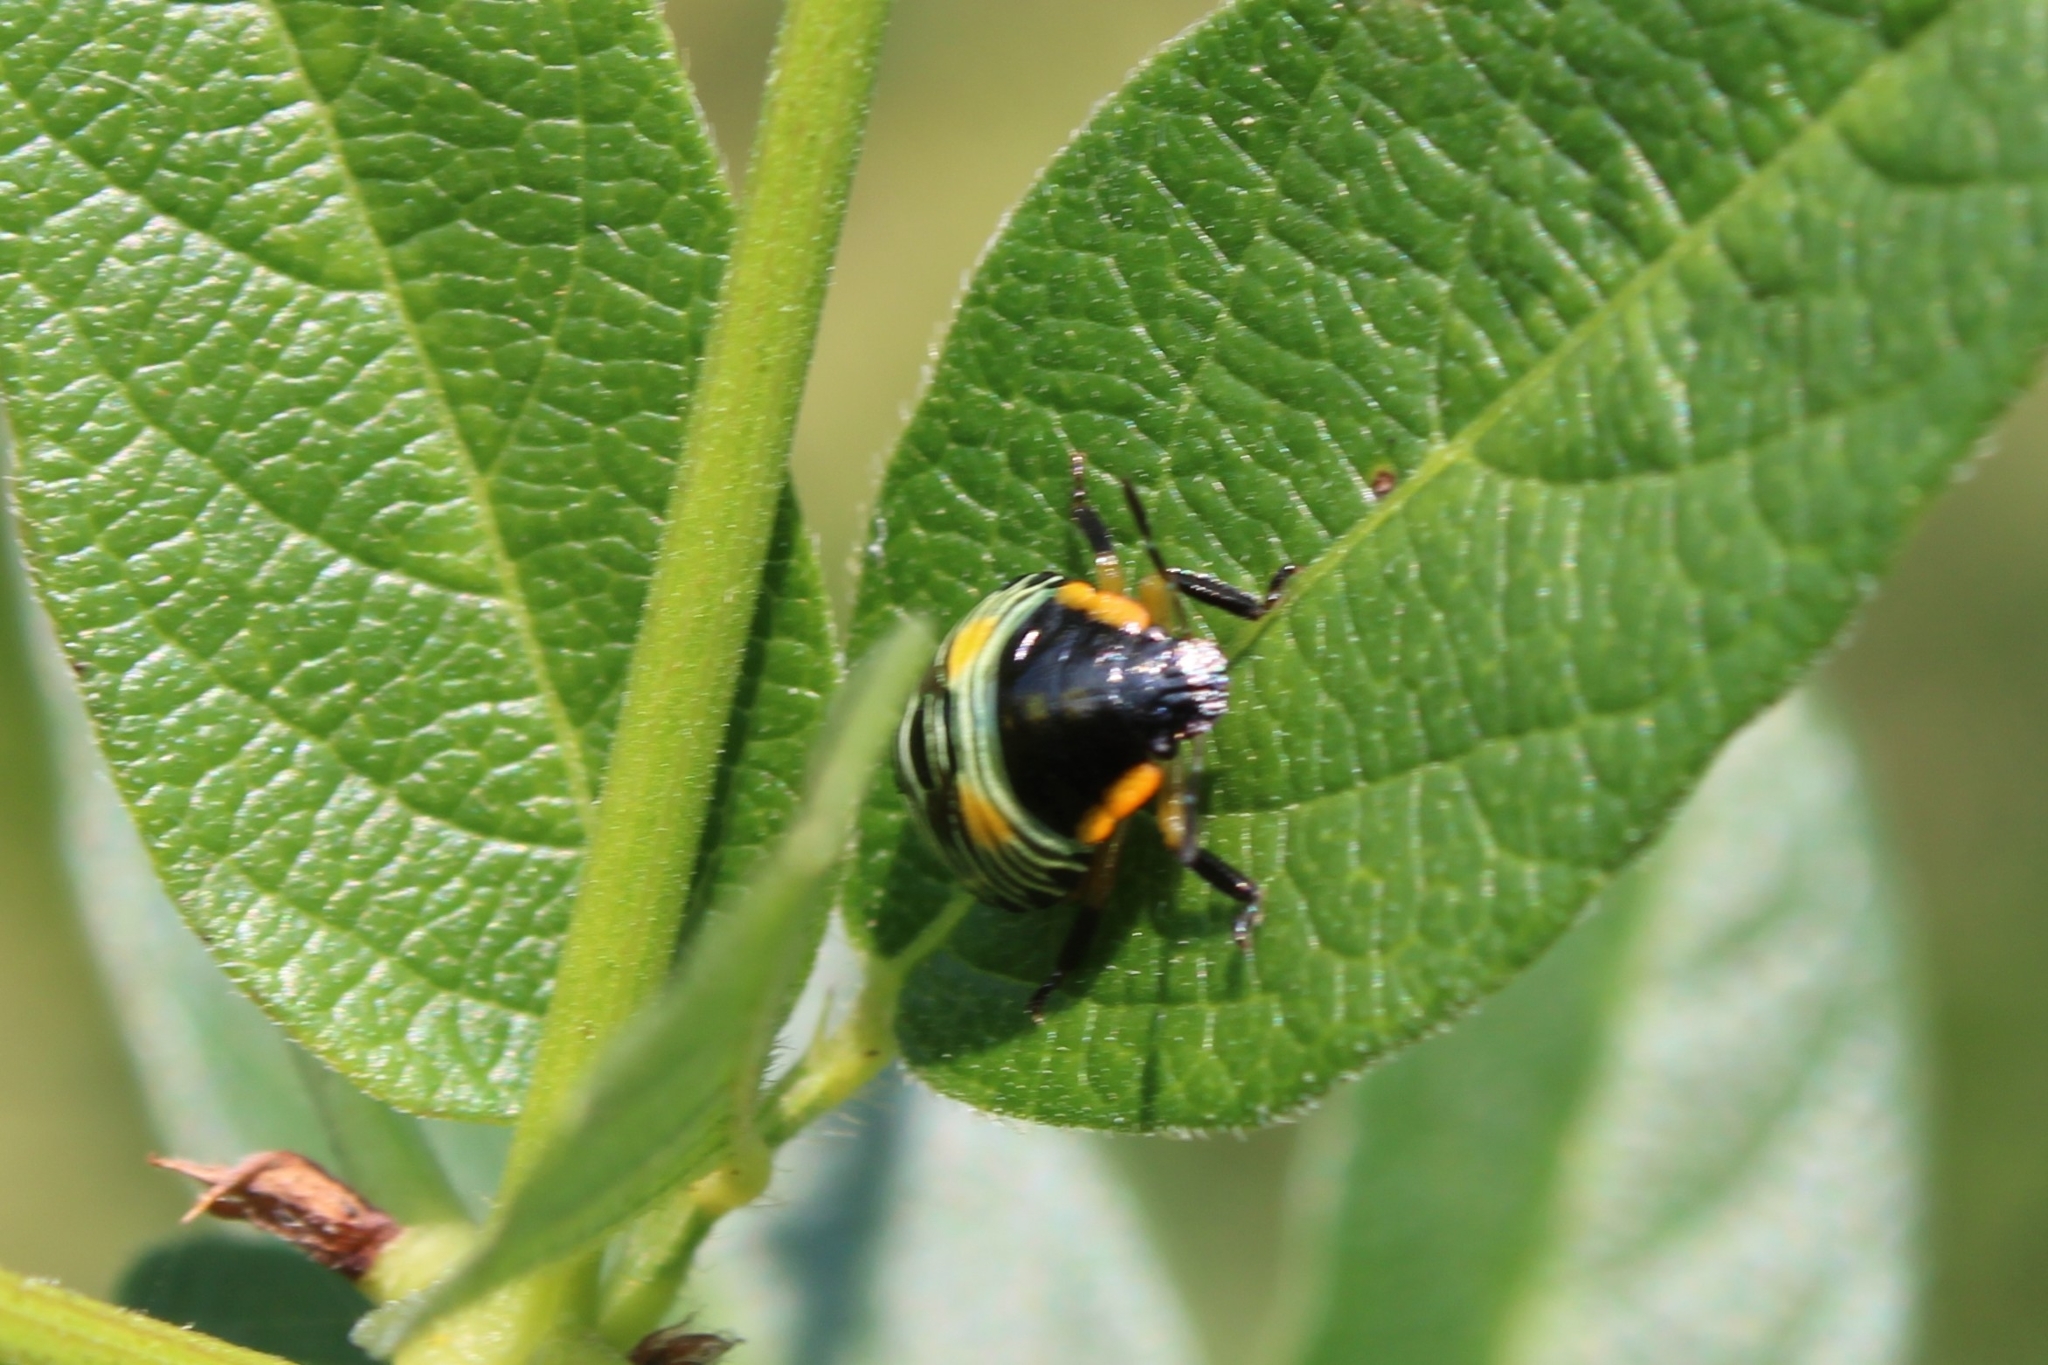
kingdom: Animalia
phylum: Arthropoda
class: Insecta
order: Hemiptera
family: Pentatomidae
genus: Chinavia
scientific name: Chinavia hilaris
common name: Green stink bug
